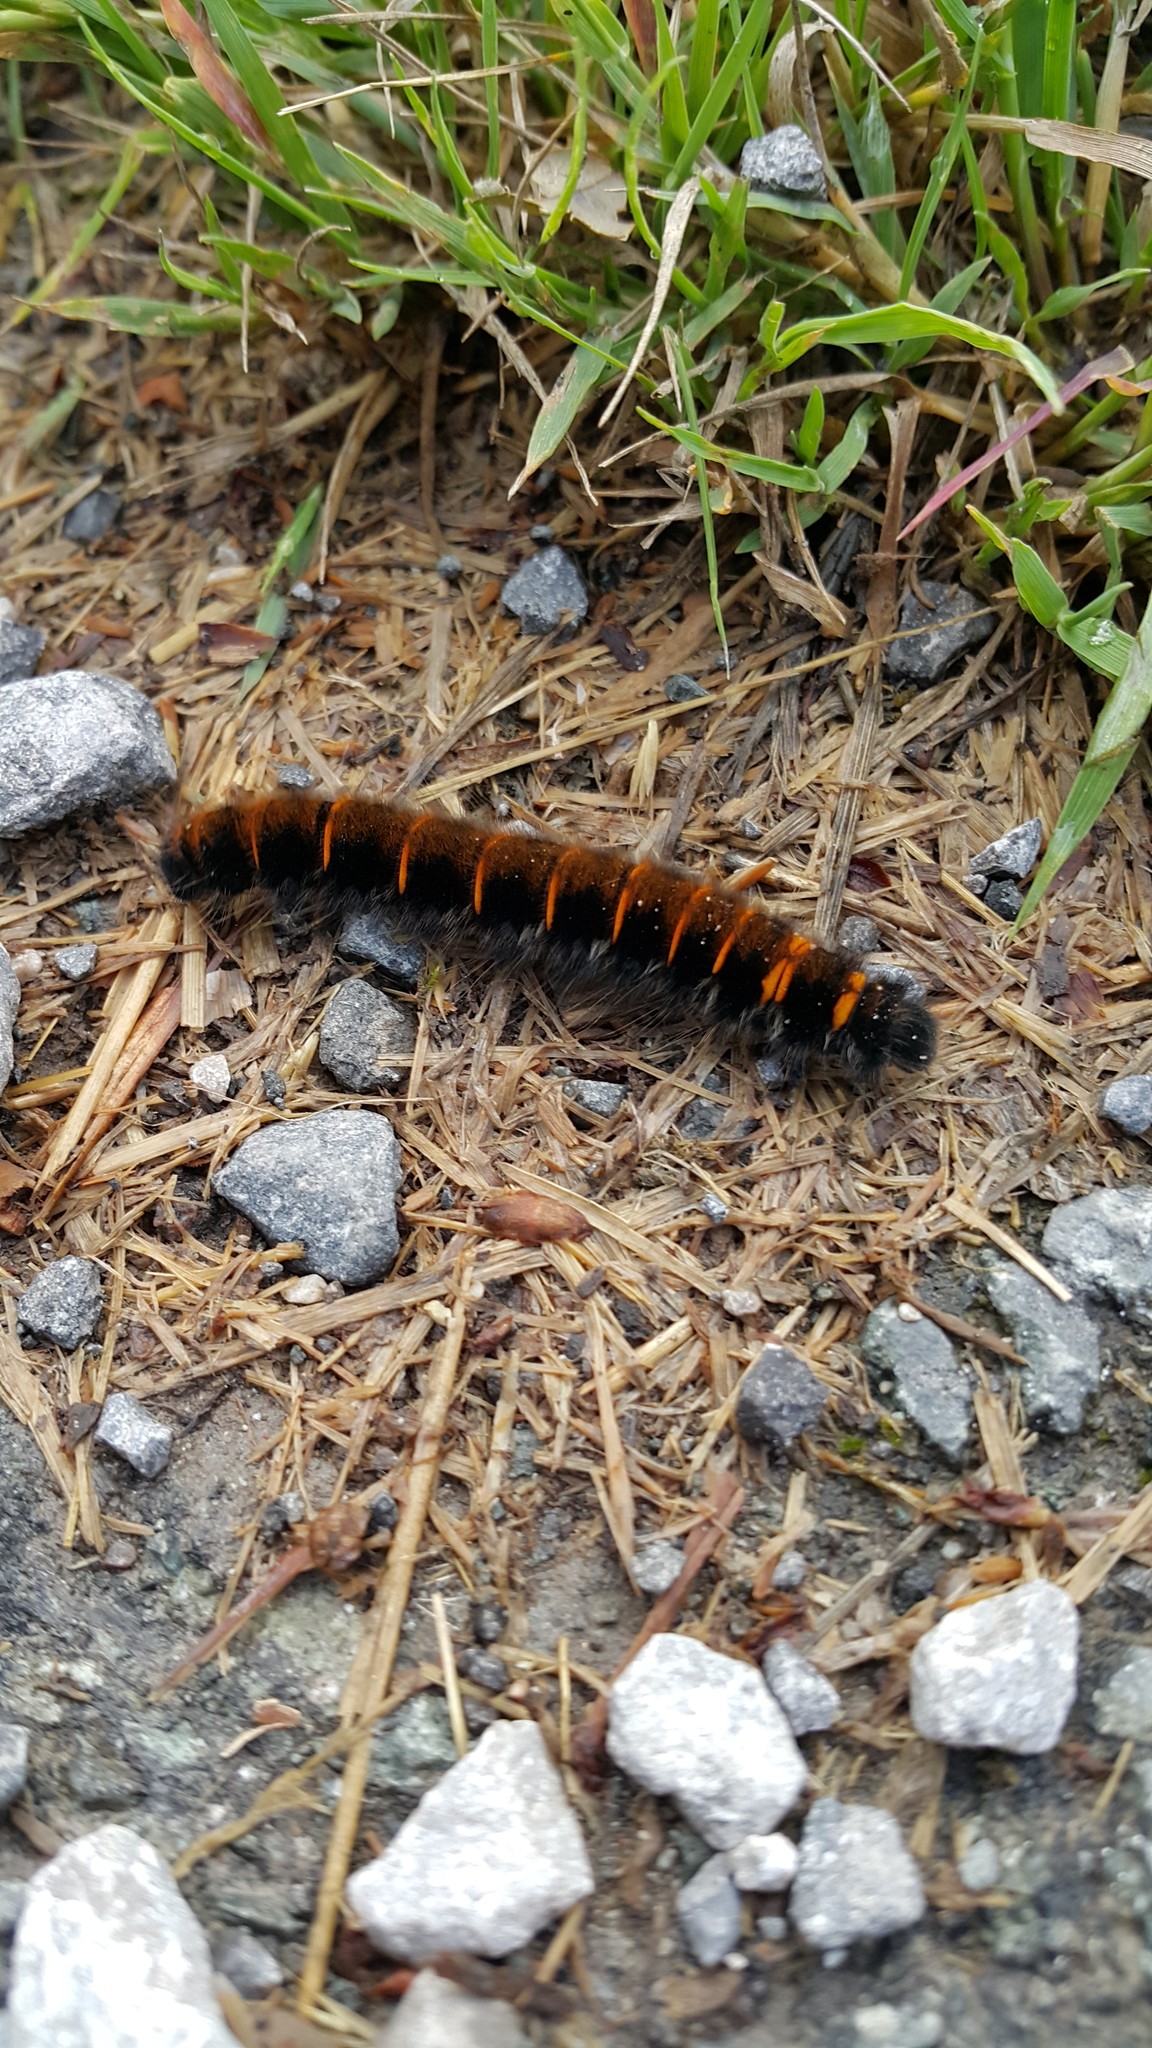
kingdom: Animalia
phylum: Arthropoda
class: Insecta
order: Lepidoptera
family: Lasiocampidae
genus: Macrothylacia
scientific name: Macrothylacia rubi
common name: Fox moth
